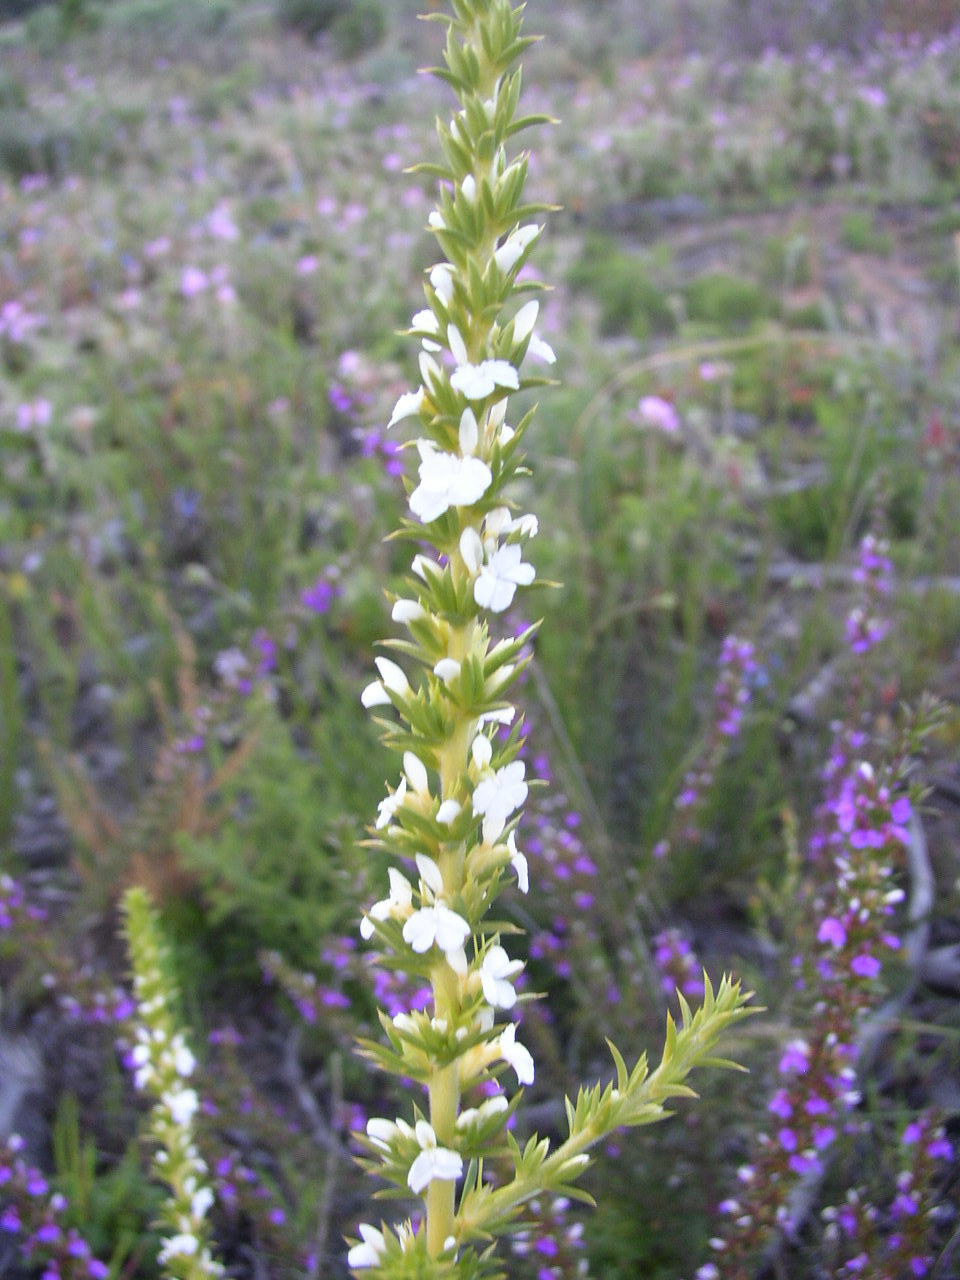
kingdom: Plantae
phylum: Tracheophyta
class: Magnoliopsida
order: Fabales
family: Polygalaceae
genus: Muraltia
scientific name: Muraltia heisteria
